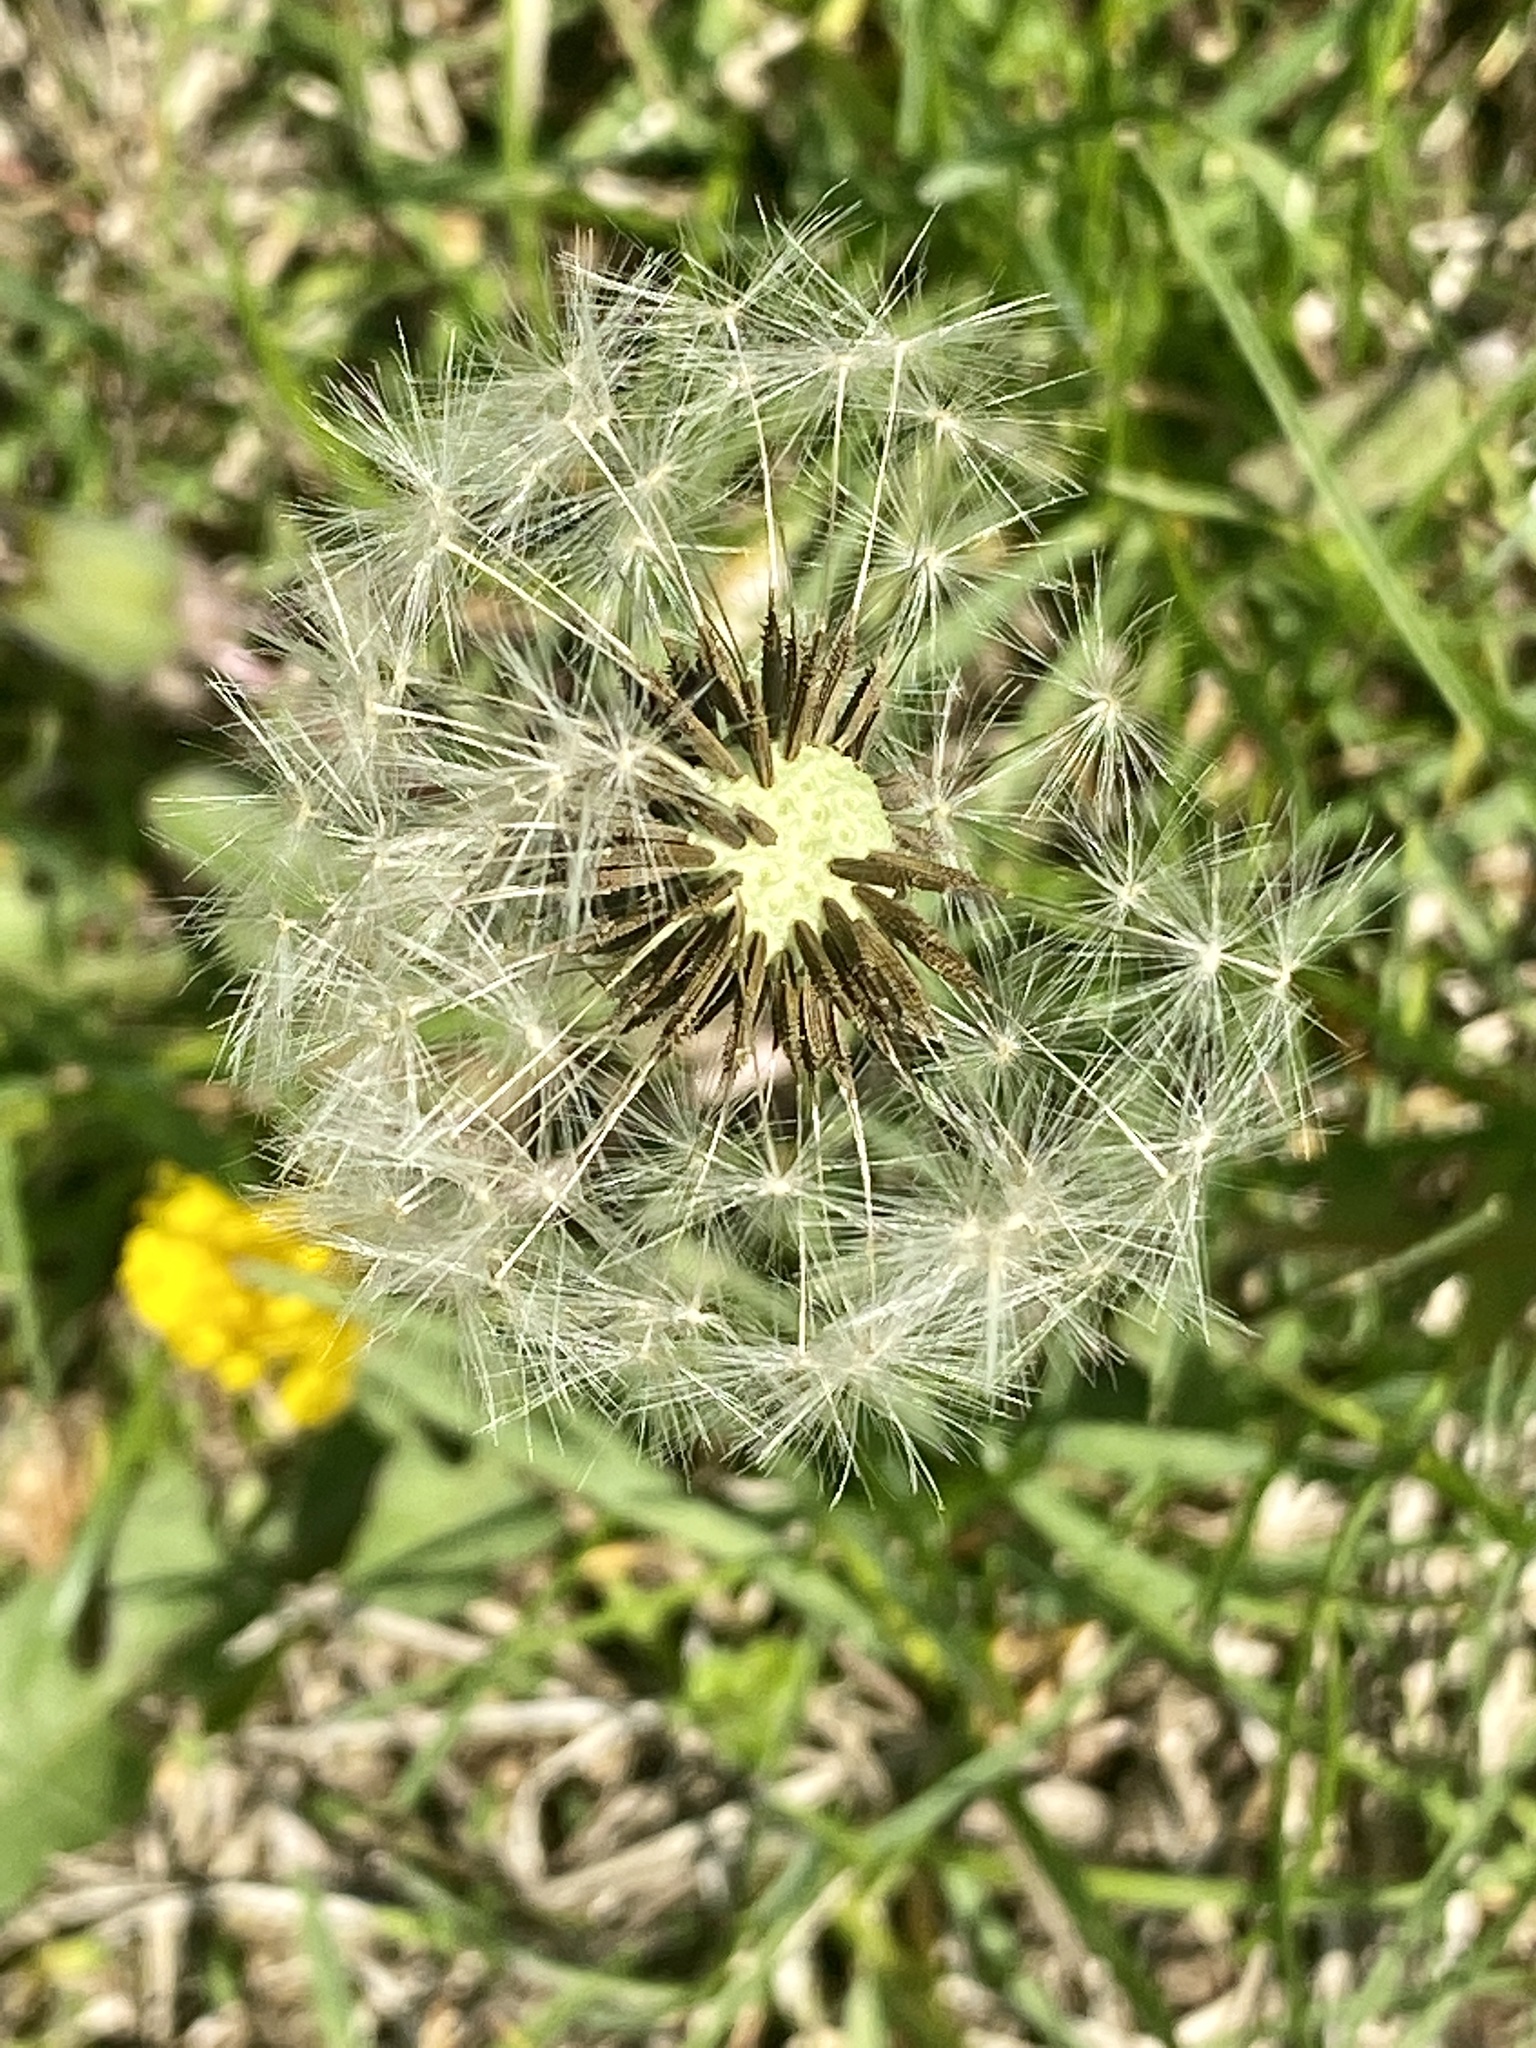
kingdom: Plantae
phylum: Tracheophyta
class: Magnoliopsida
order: Asterales
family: Asteraceae
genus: Taraxacum
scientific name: Taraxacum officinale
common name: Common dandelion
